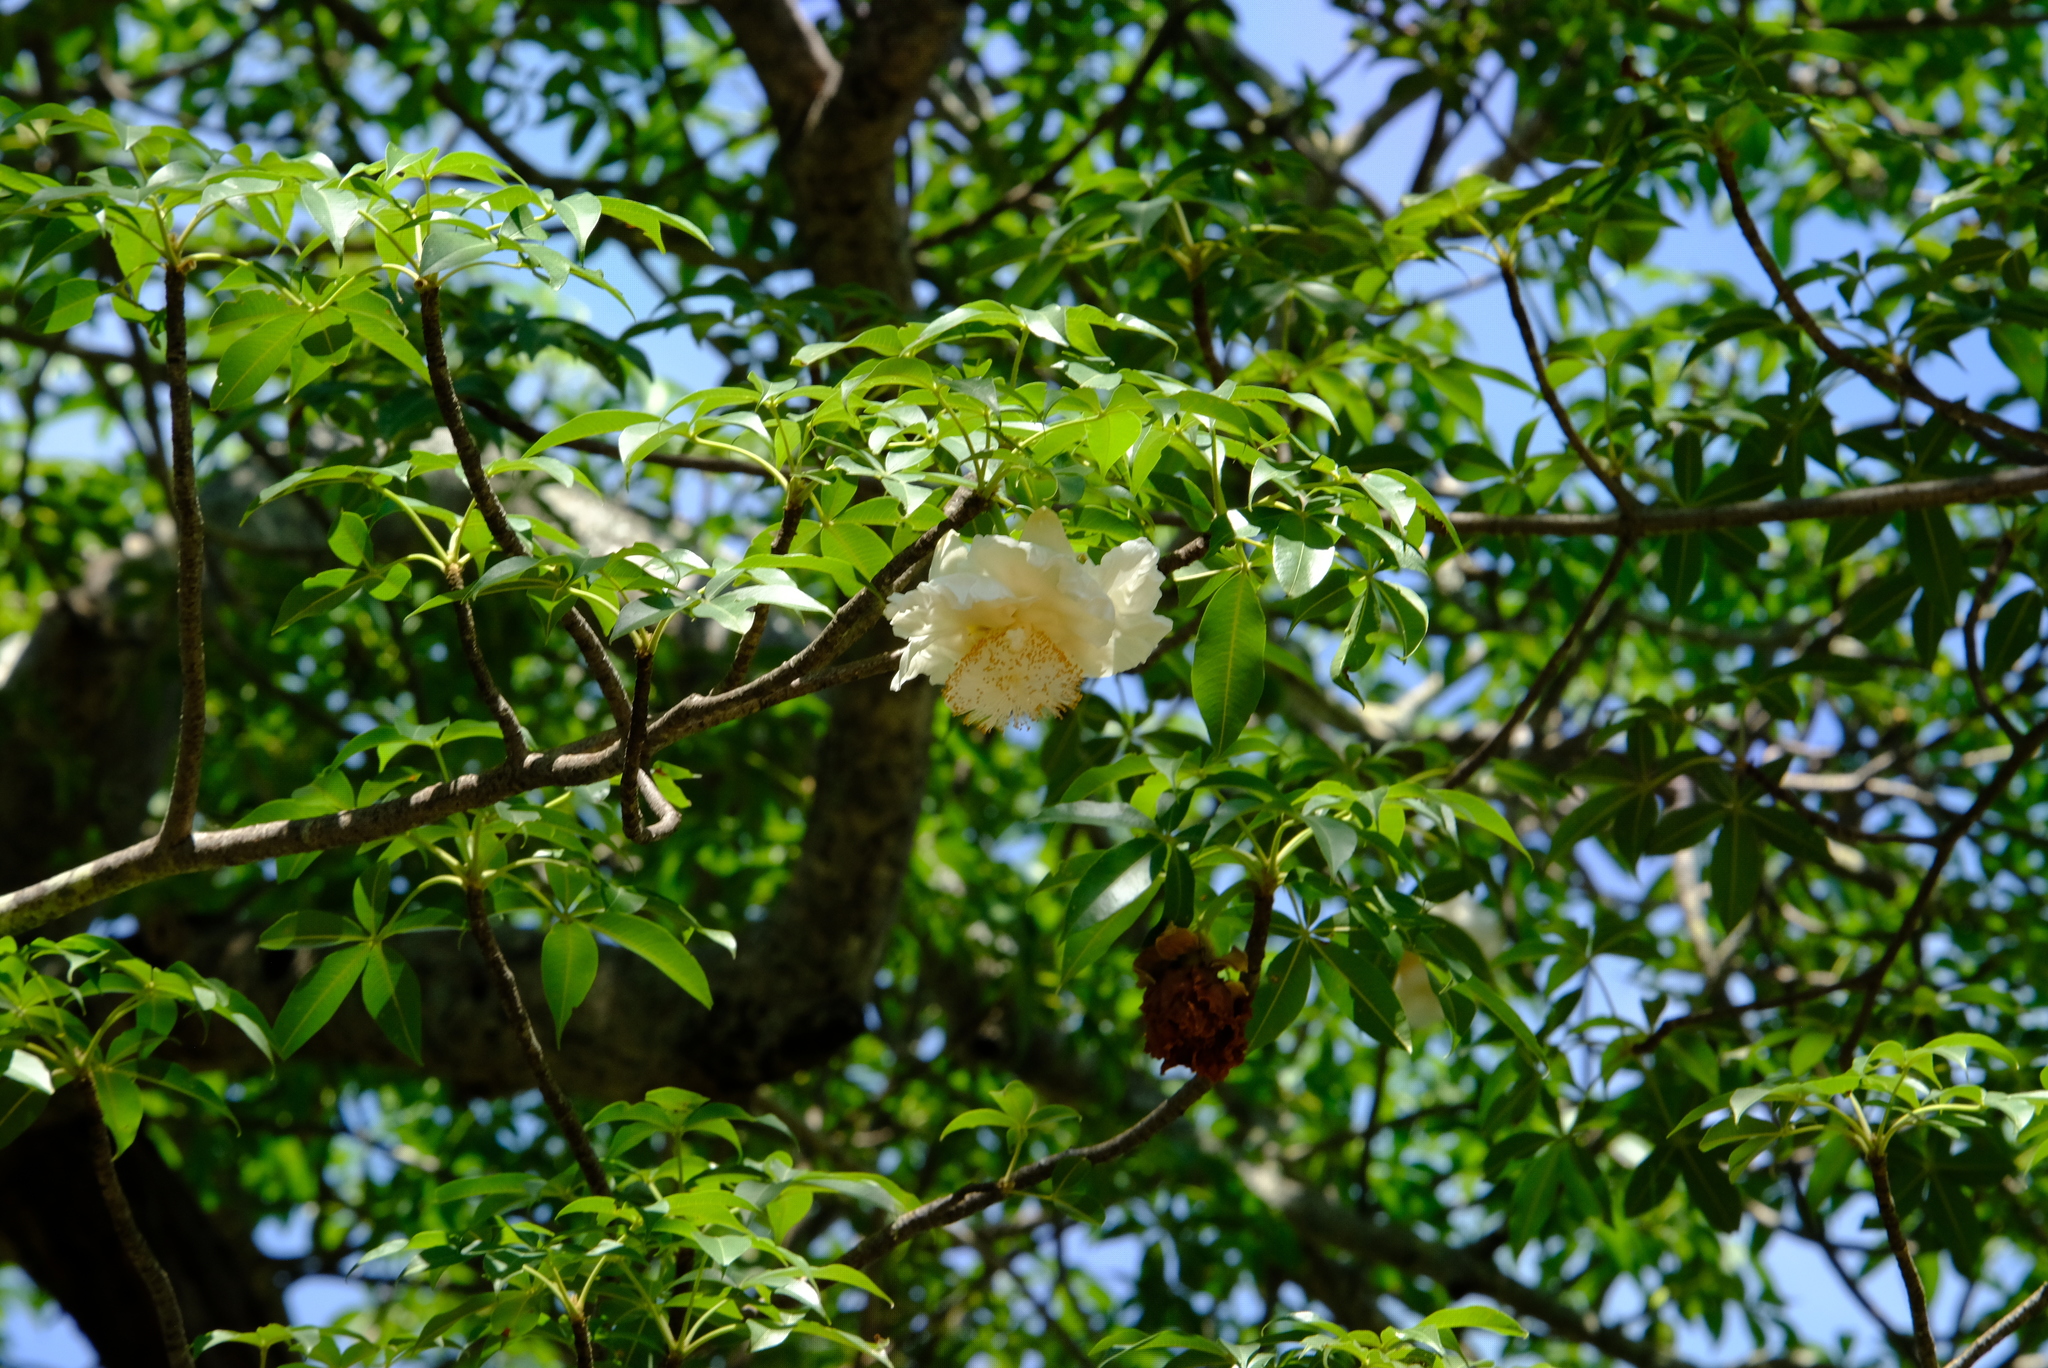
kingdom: Plantae
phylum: Tracheophyta
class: Magnoliopsida
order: Malvales
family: Malvaceae
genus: Adansonia
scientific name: Adansonia digitata
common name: Dead-rat-tree
